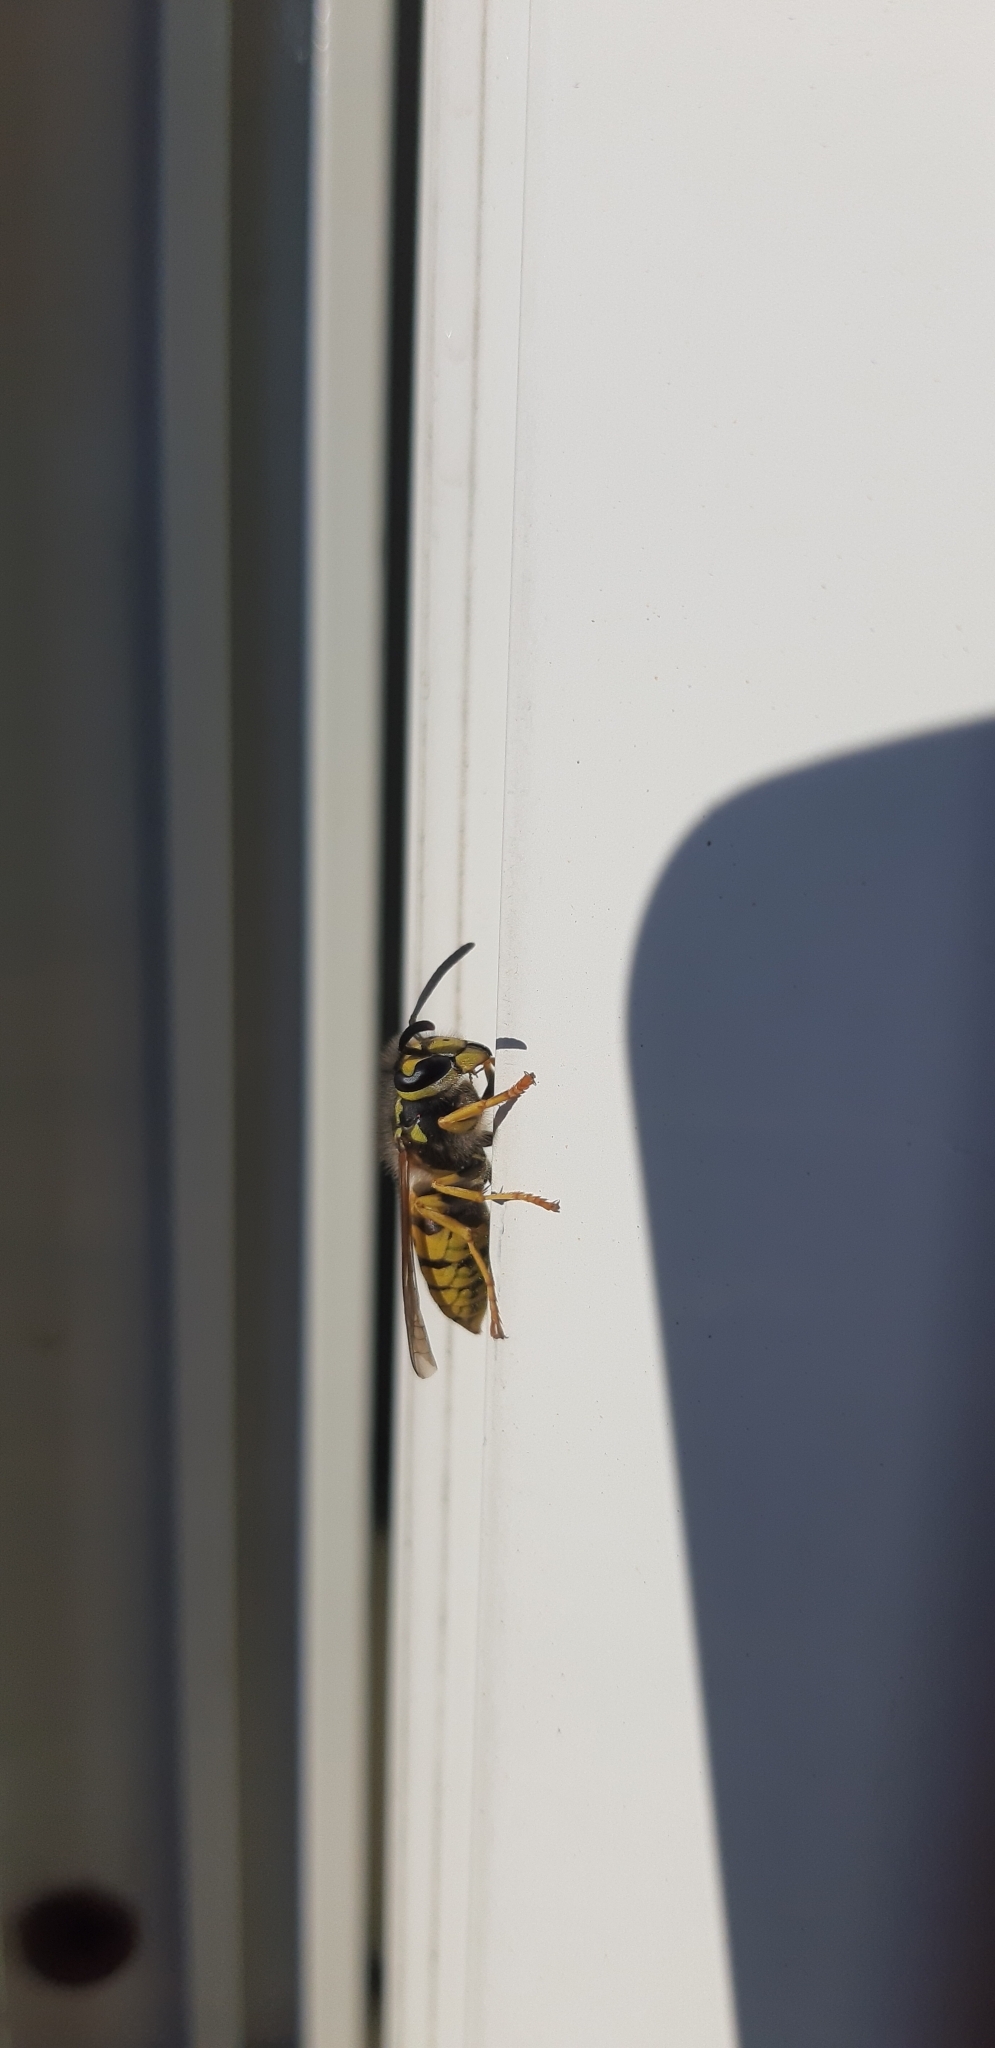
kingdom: Animalia
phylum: Arthropoda
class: Insecta
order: Hymenoptera
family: Vespidae
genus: Vespula
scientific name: Vespula germanica
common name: German wasp
